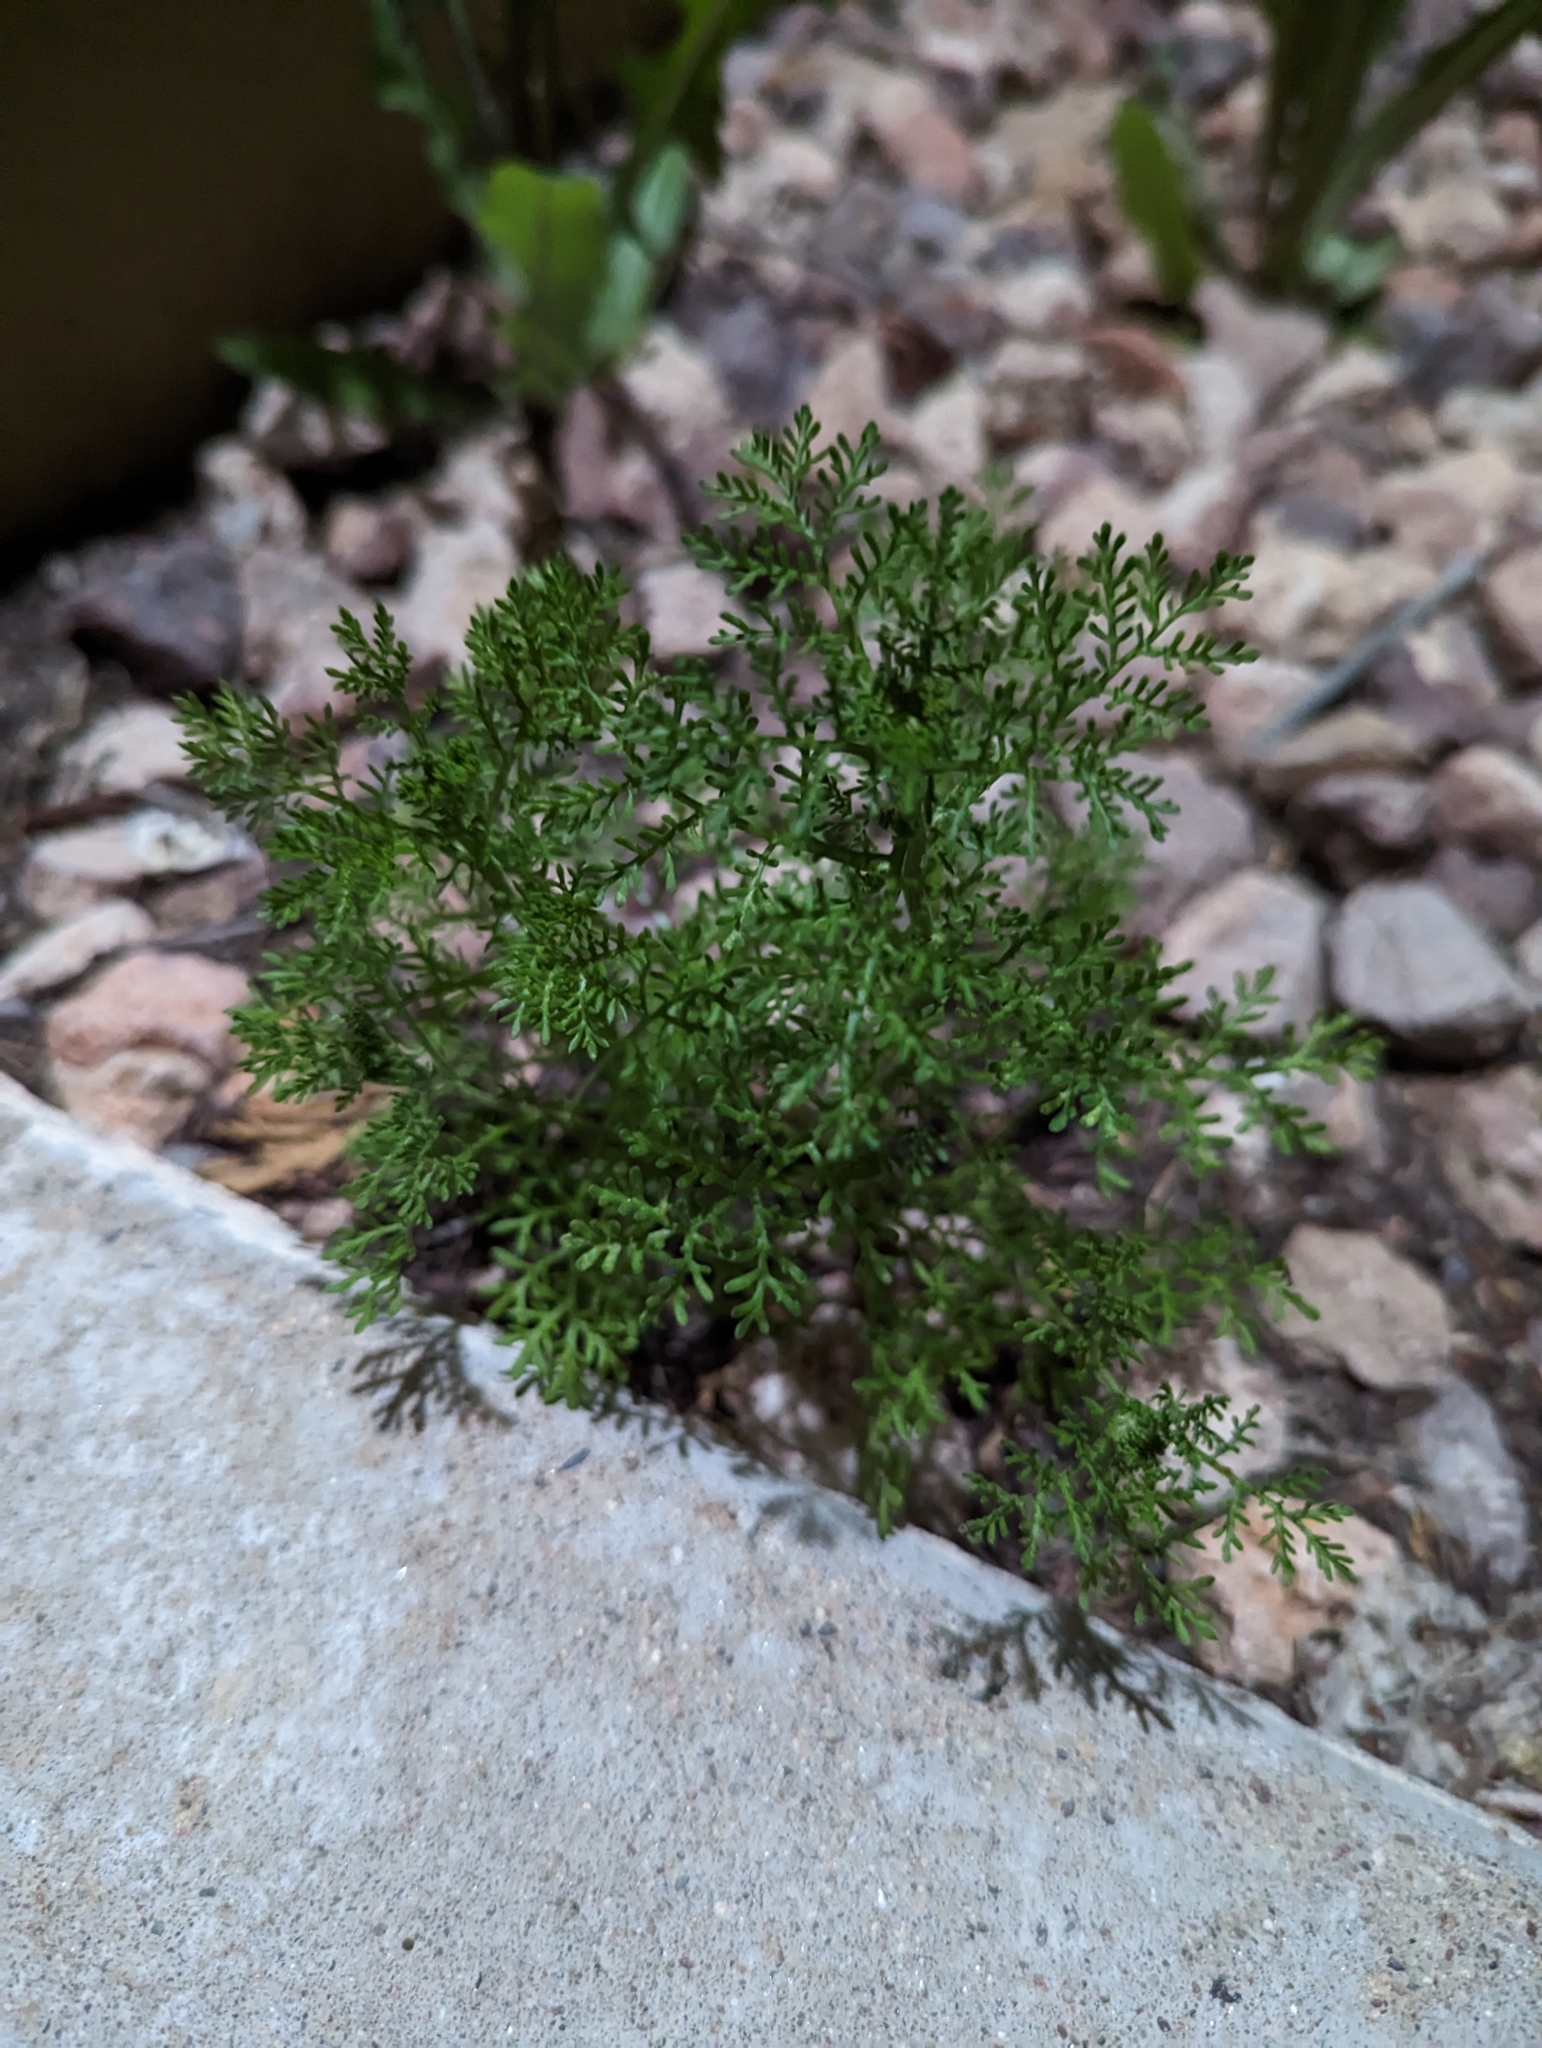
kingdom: Plantae
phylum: Tracheophyta
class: Magnoliopsida
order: Asterales
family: Asteraceae
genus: Oncosiphon
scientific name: Oncosiphon pilulifer
